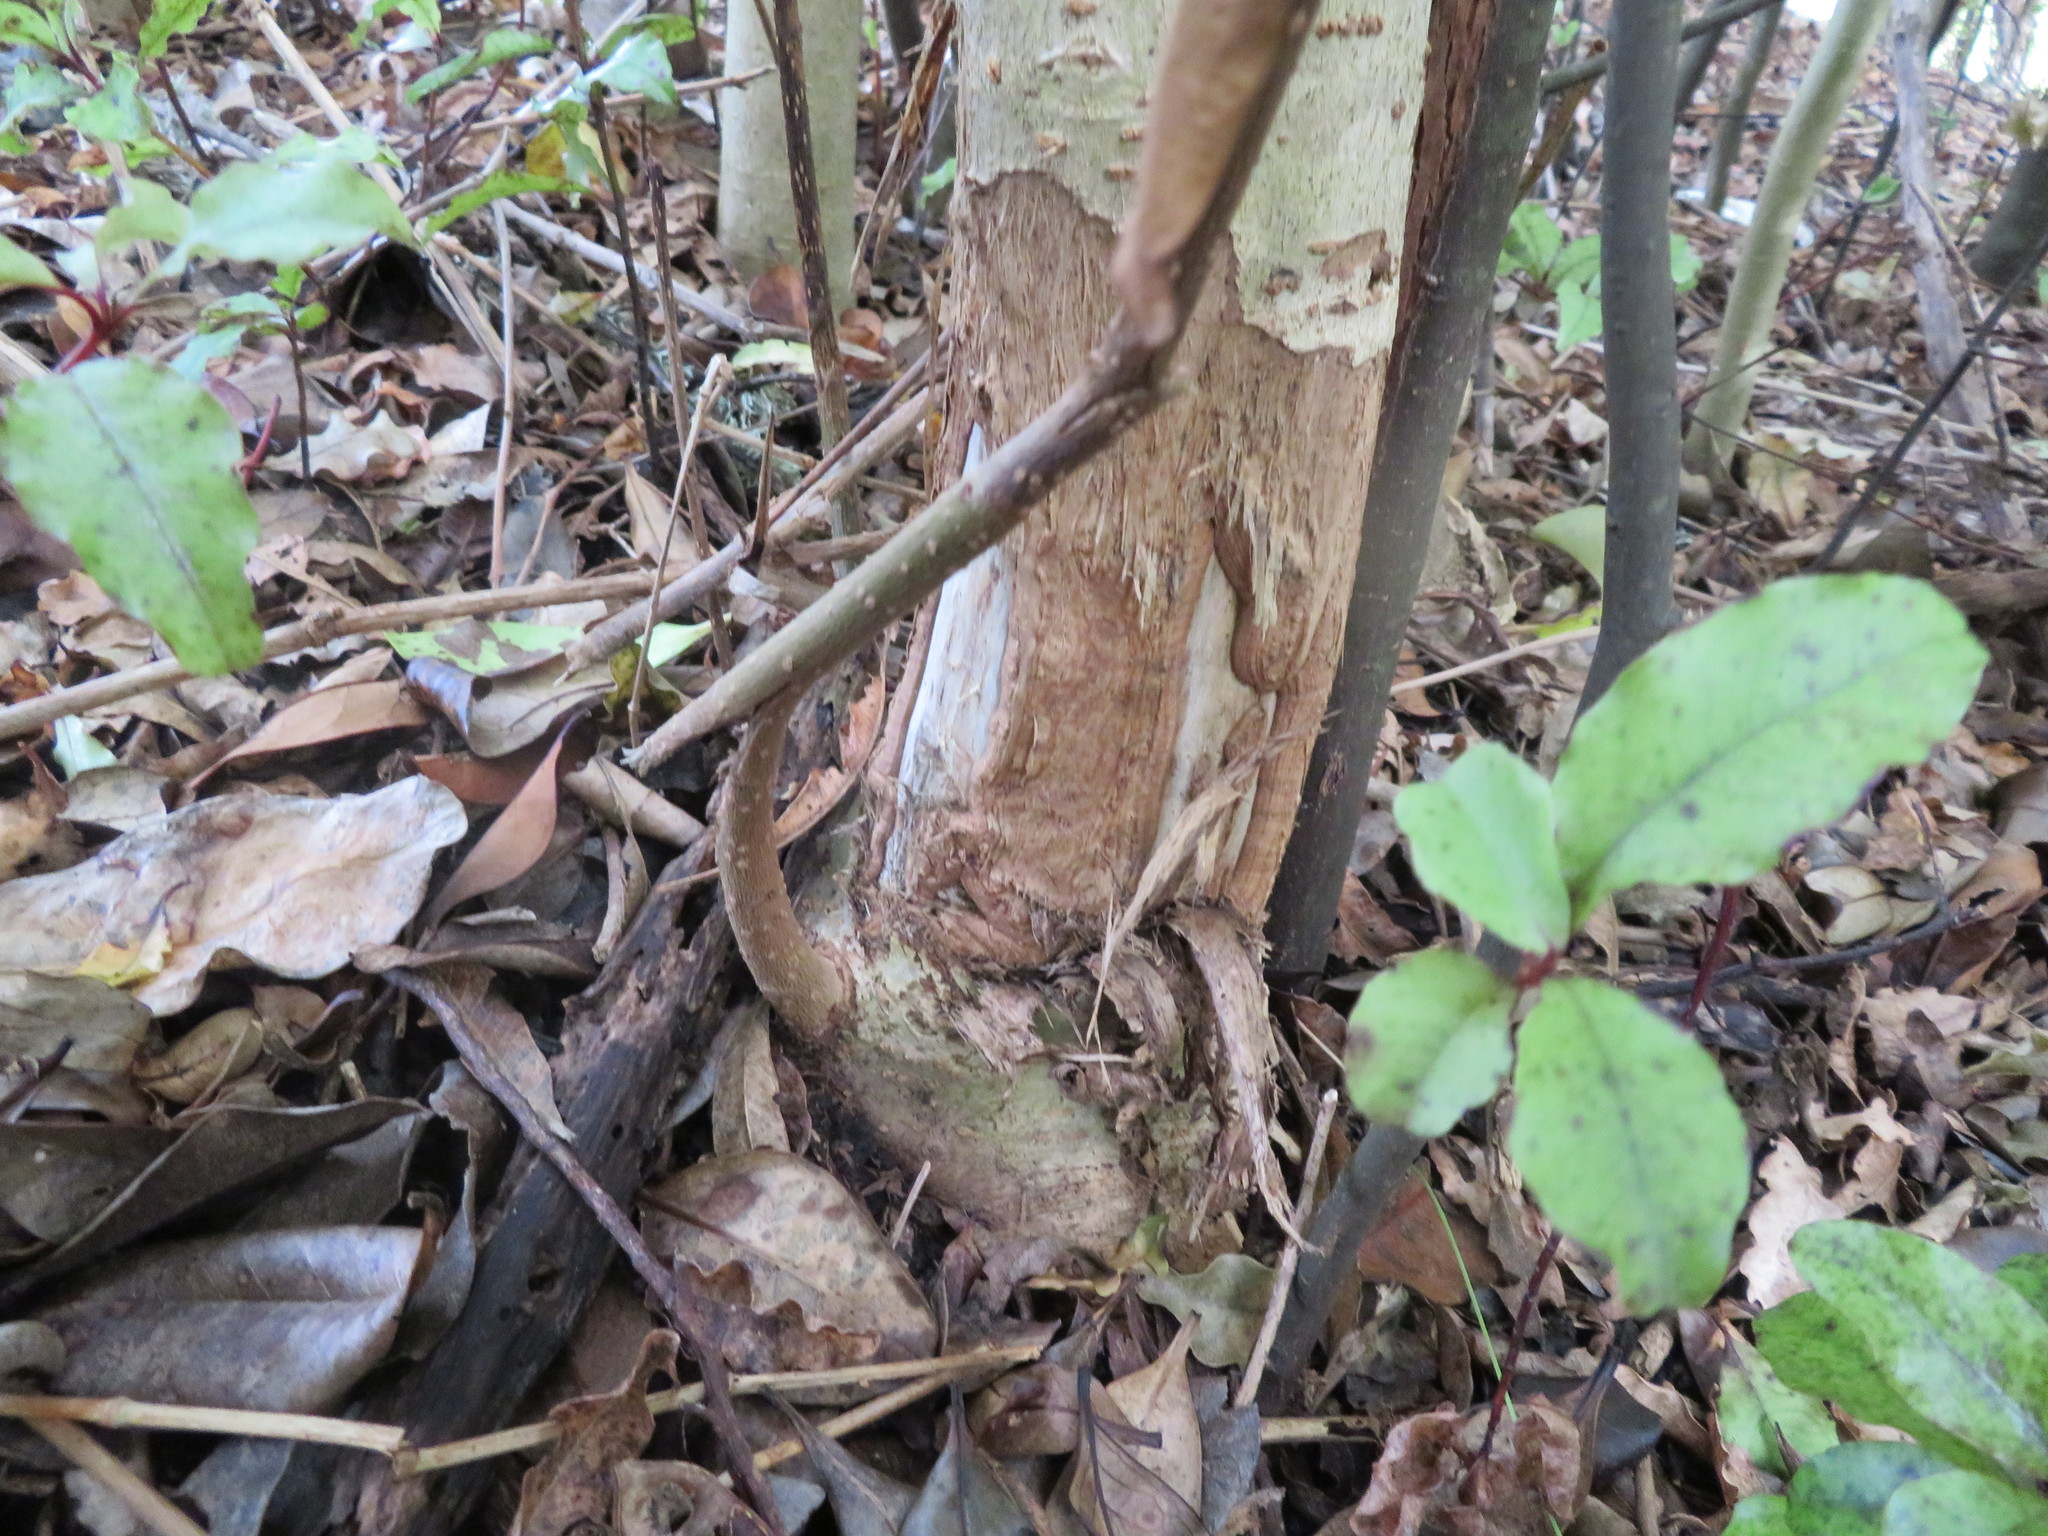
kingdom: Plantae
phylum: Tracheophyta
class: Magnoliopsida
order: Lamiales
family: Oleaceae
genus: Ligustrum
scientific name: Ligustrum lucidum
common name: Glossy privet
